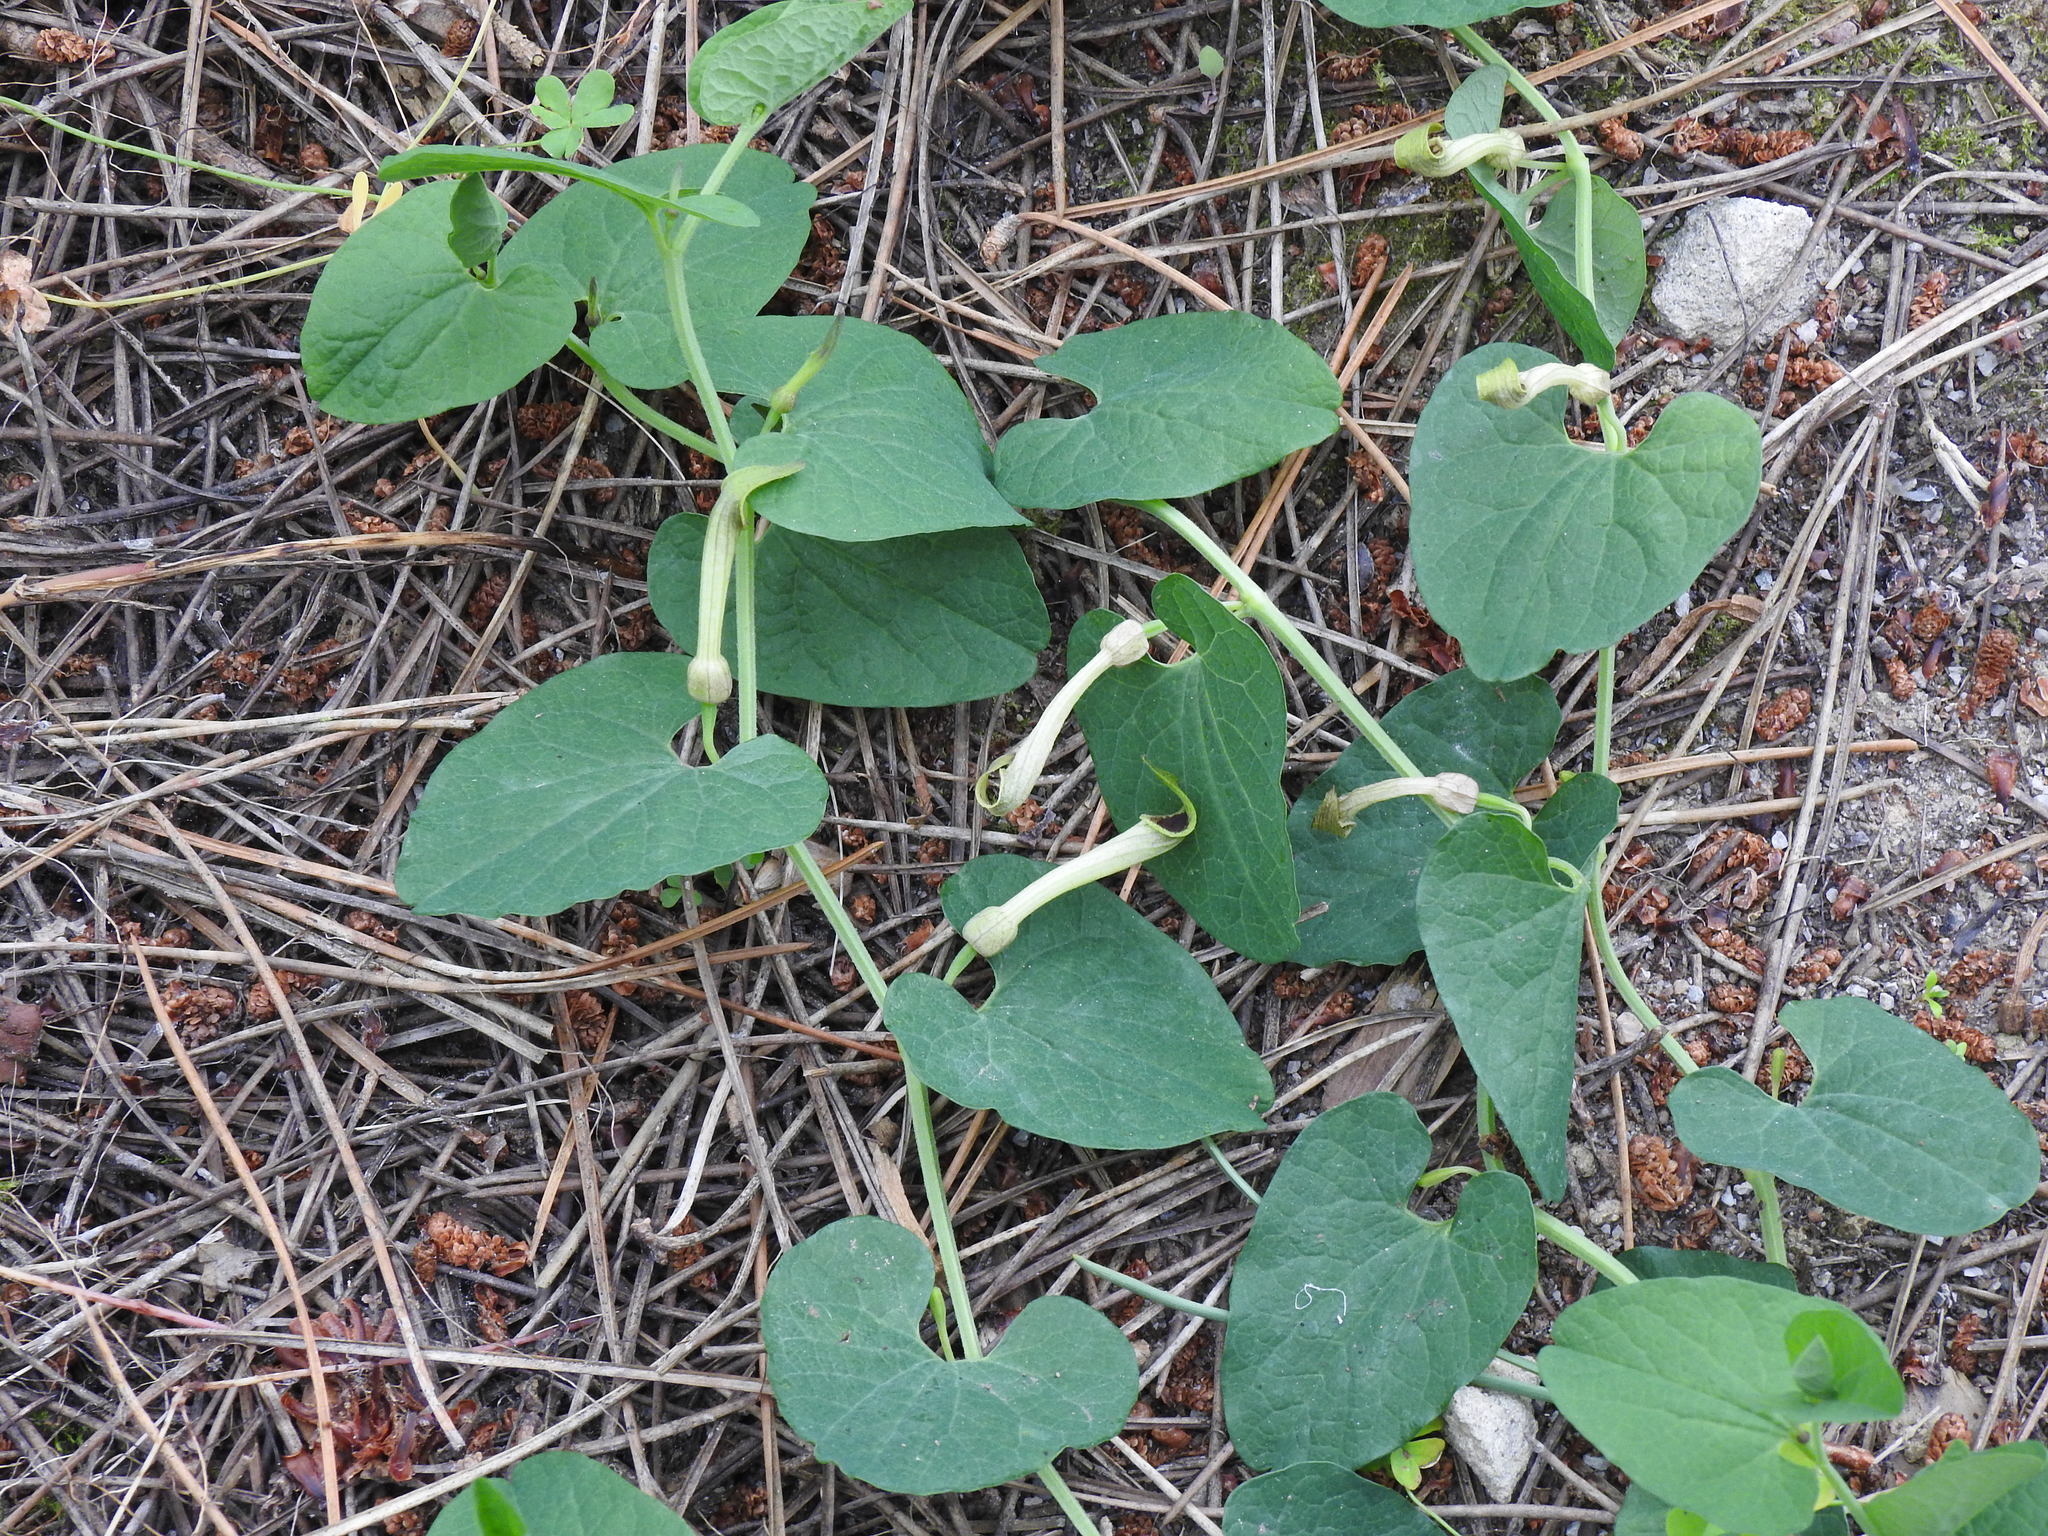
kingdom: Plantae
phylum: Tracheophyta
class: Magnoliopsida
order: Piperales
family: Aristolochiaceae
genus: Aristolochia
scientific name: Aristolochia paucinervis
